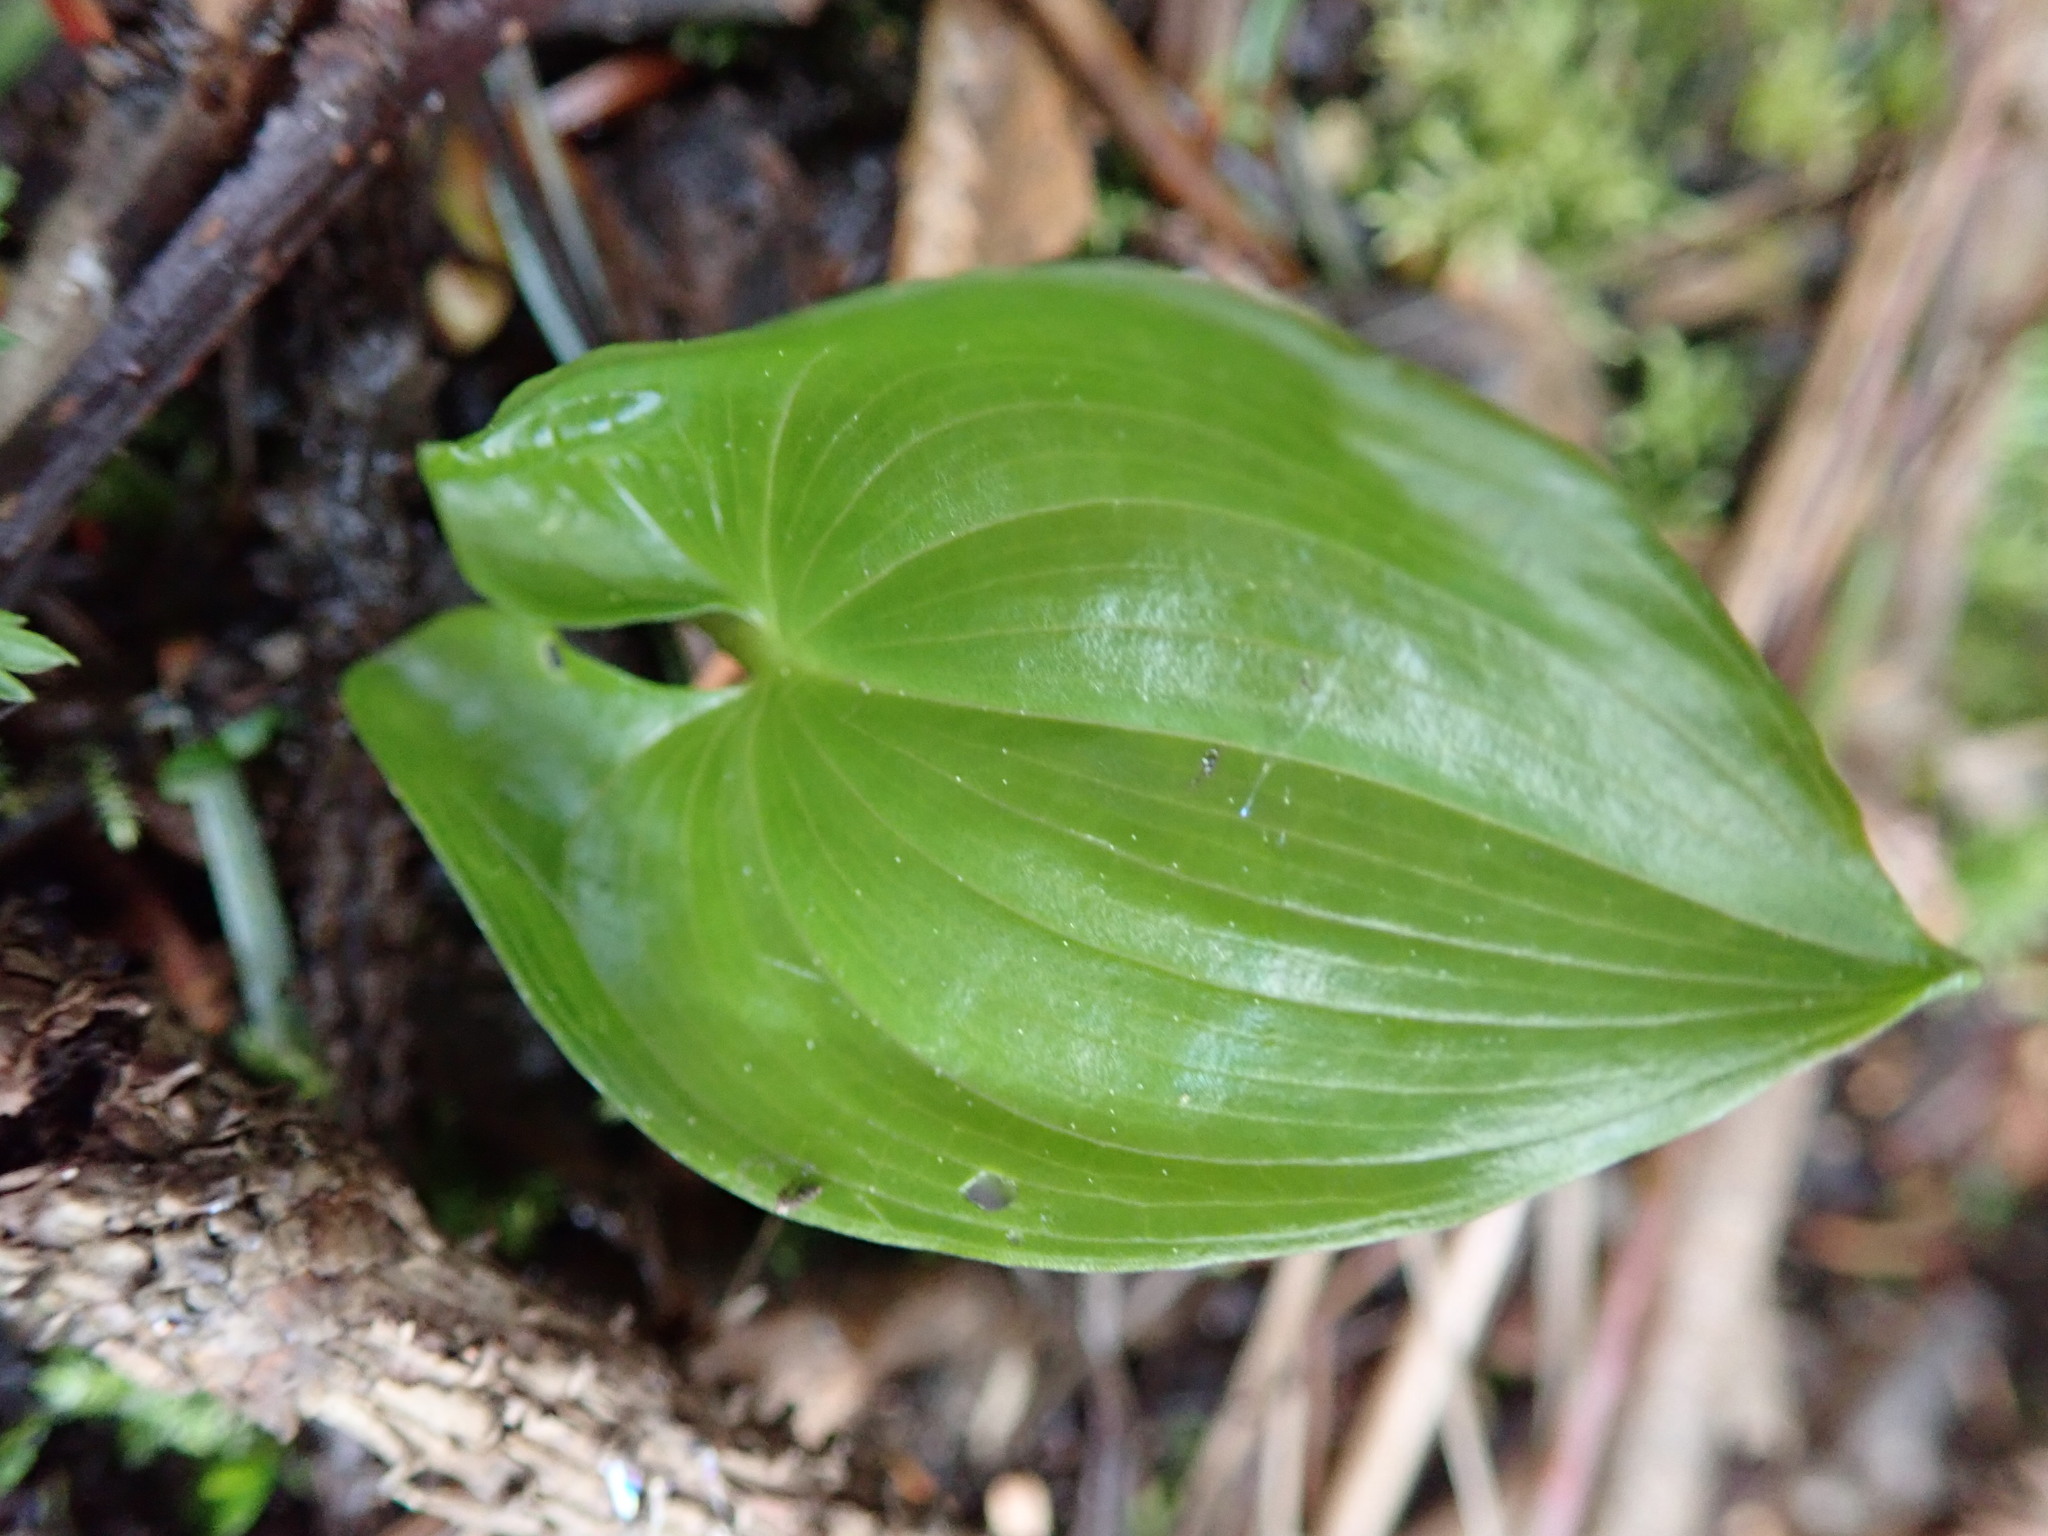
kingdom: Plantae
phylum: Tracheophyta
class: Liliopsida
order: Asparagales
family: Asparagaceae
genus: Maianthemum
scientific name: Maianthemum dilatatum
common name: False lily-of-the-valley
